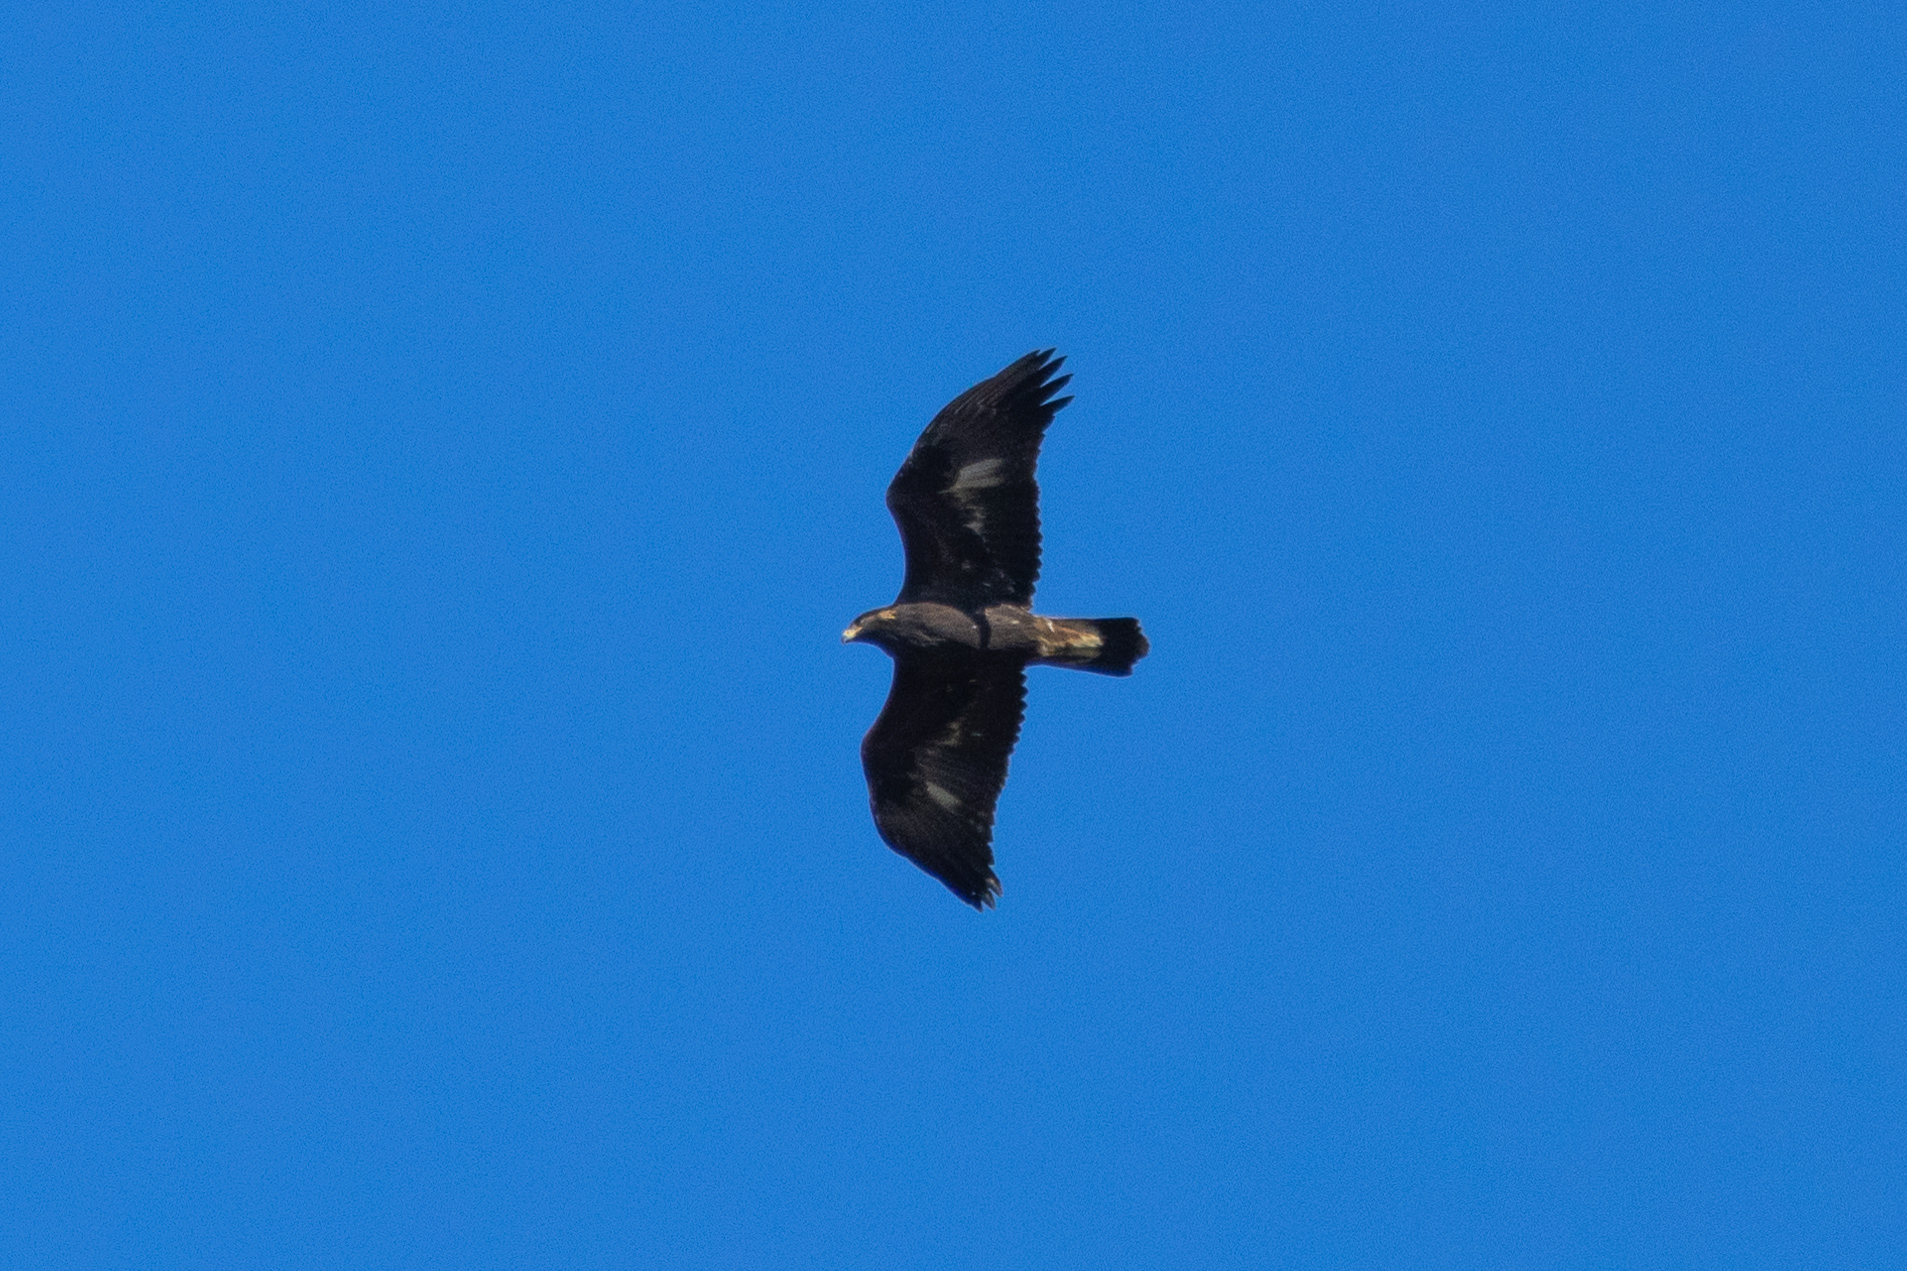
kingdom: Animalia
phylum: Chordata
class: Aves
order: Accipitriformes
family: Accipitridae
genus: Aquila
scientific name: Aquila chrysaetos
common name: Golden eagle
